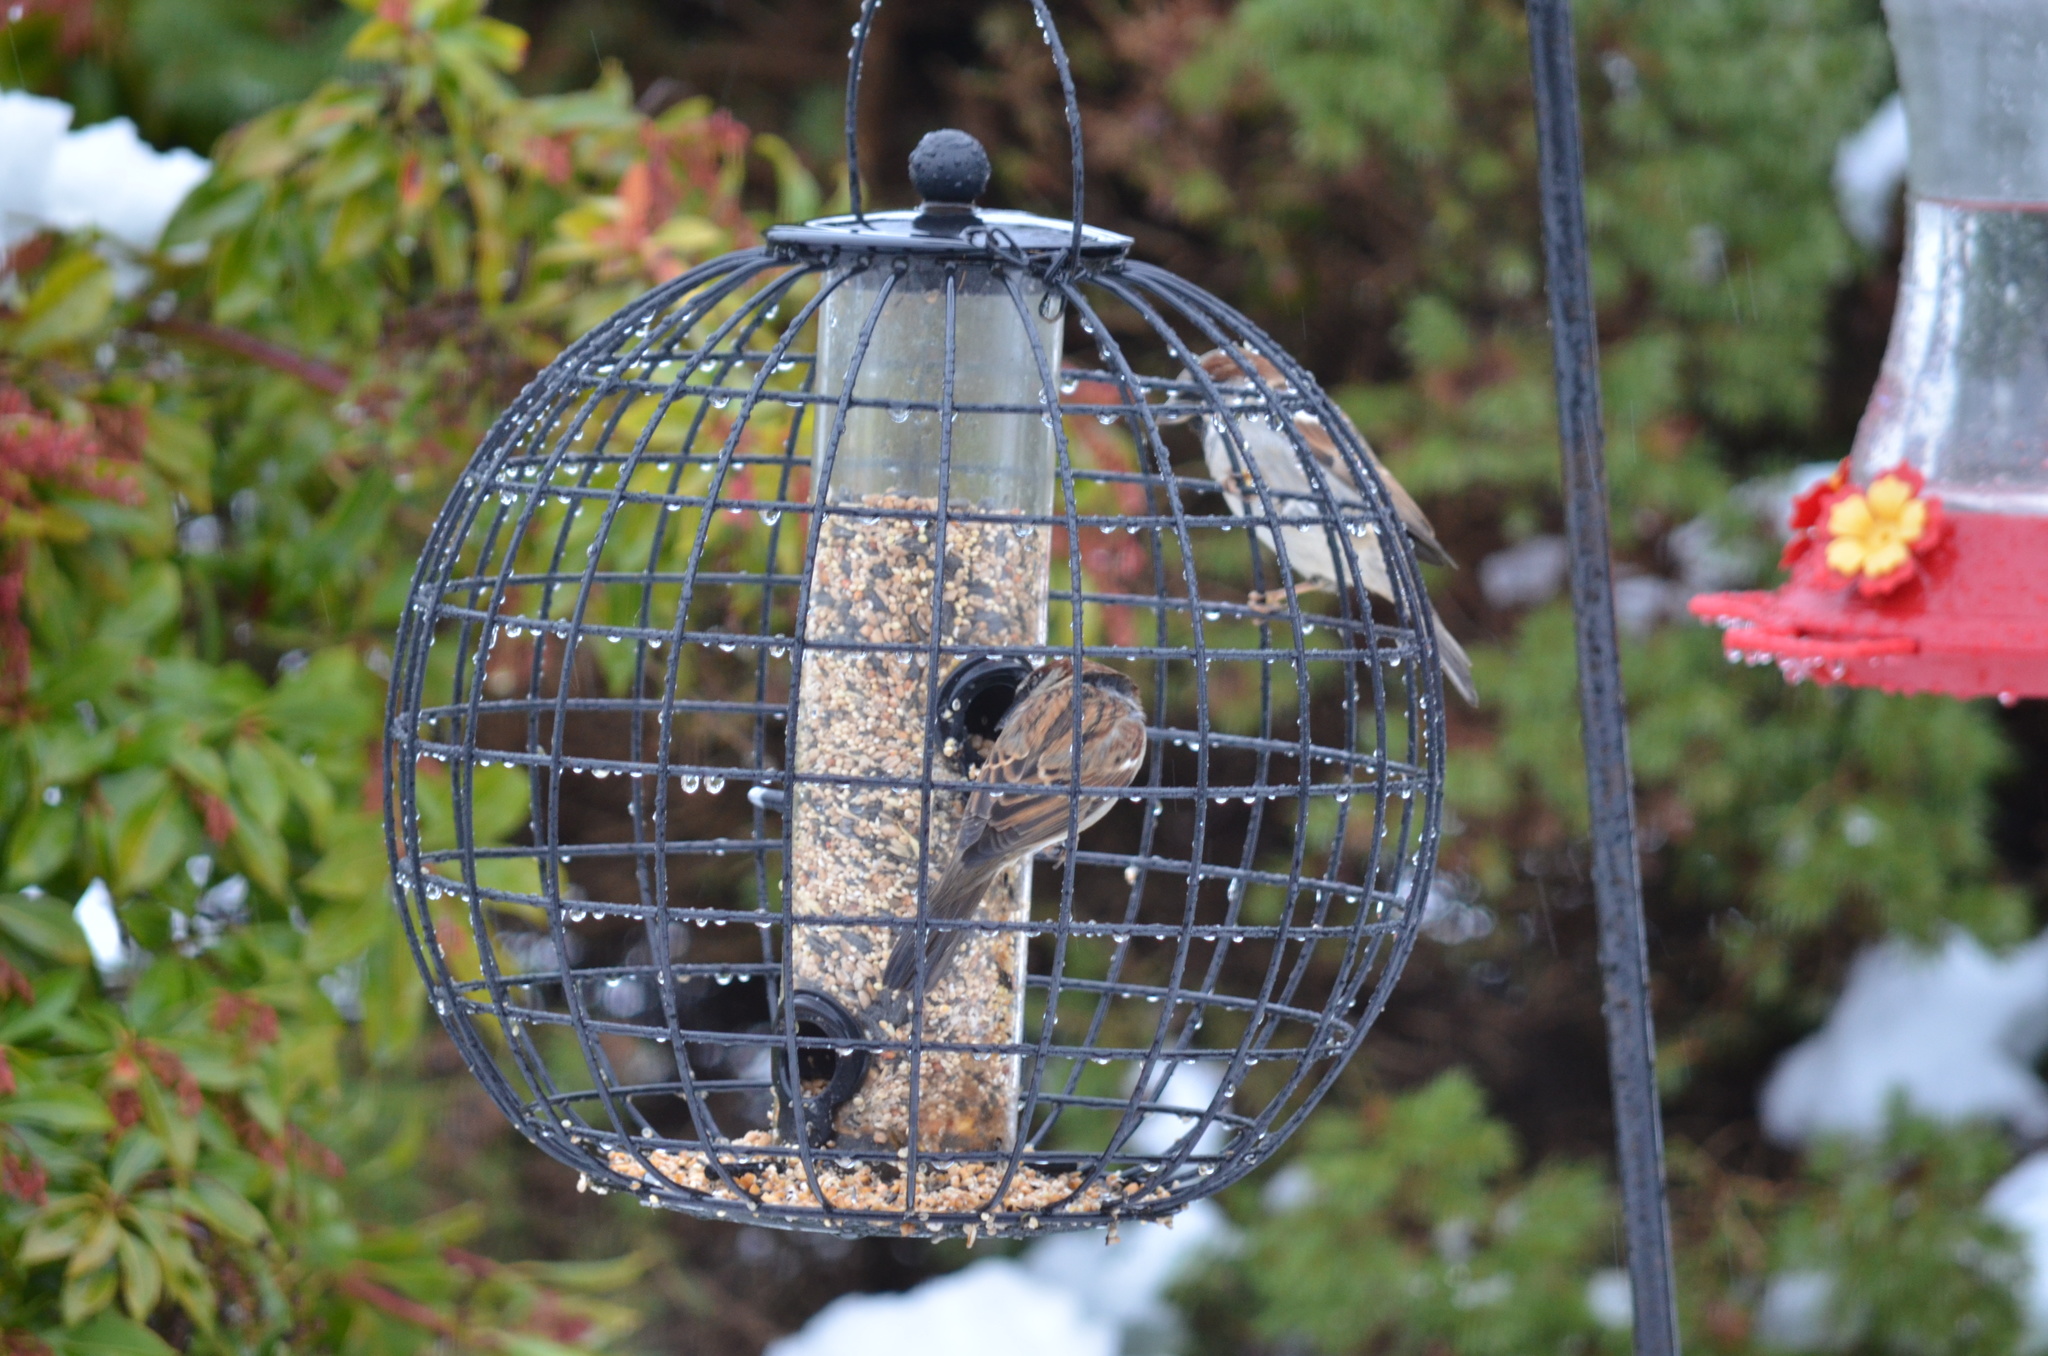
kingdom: Animalia
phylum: Chordata
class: Aves
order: Passeriformes
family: Passeridae
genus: Passer
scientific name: Passer domesticus
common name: House sparrow
